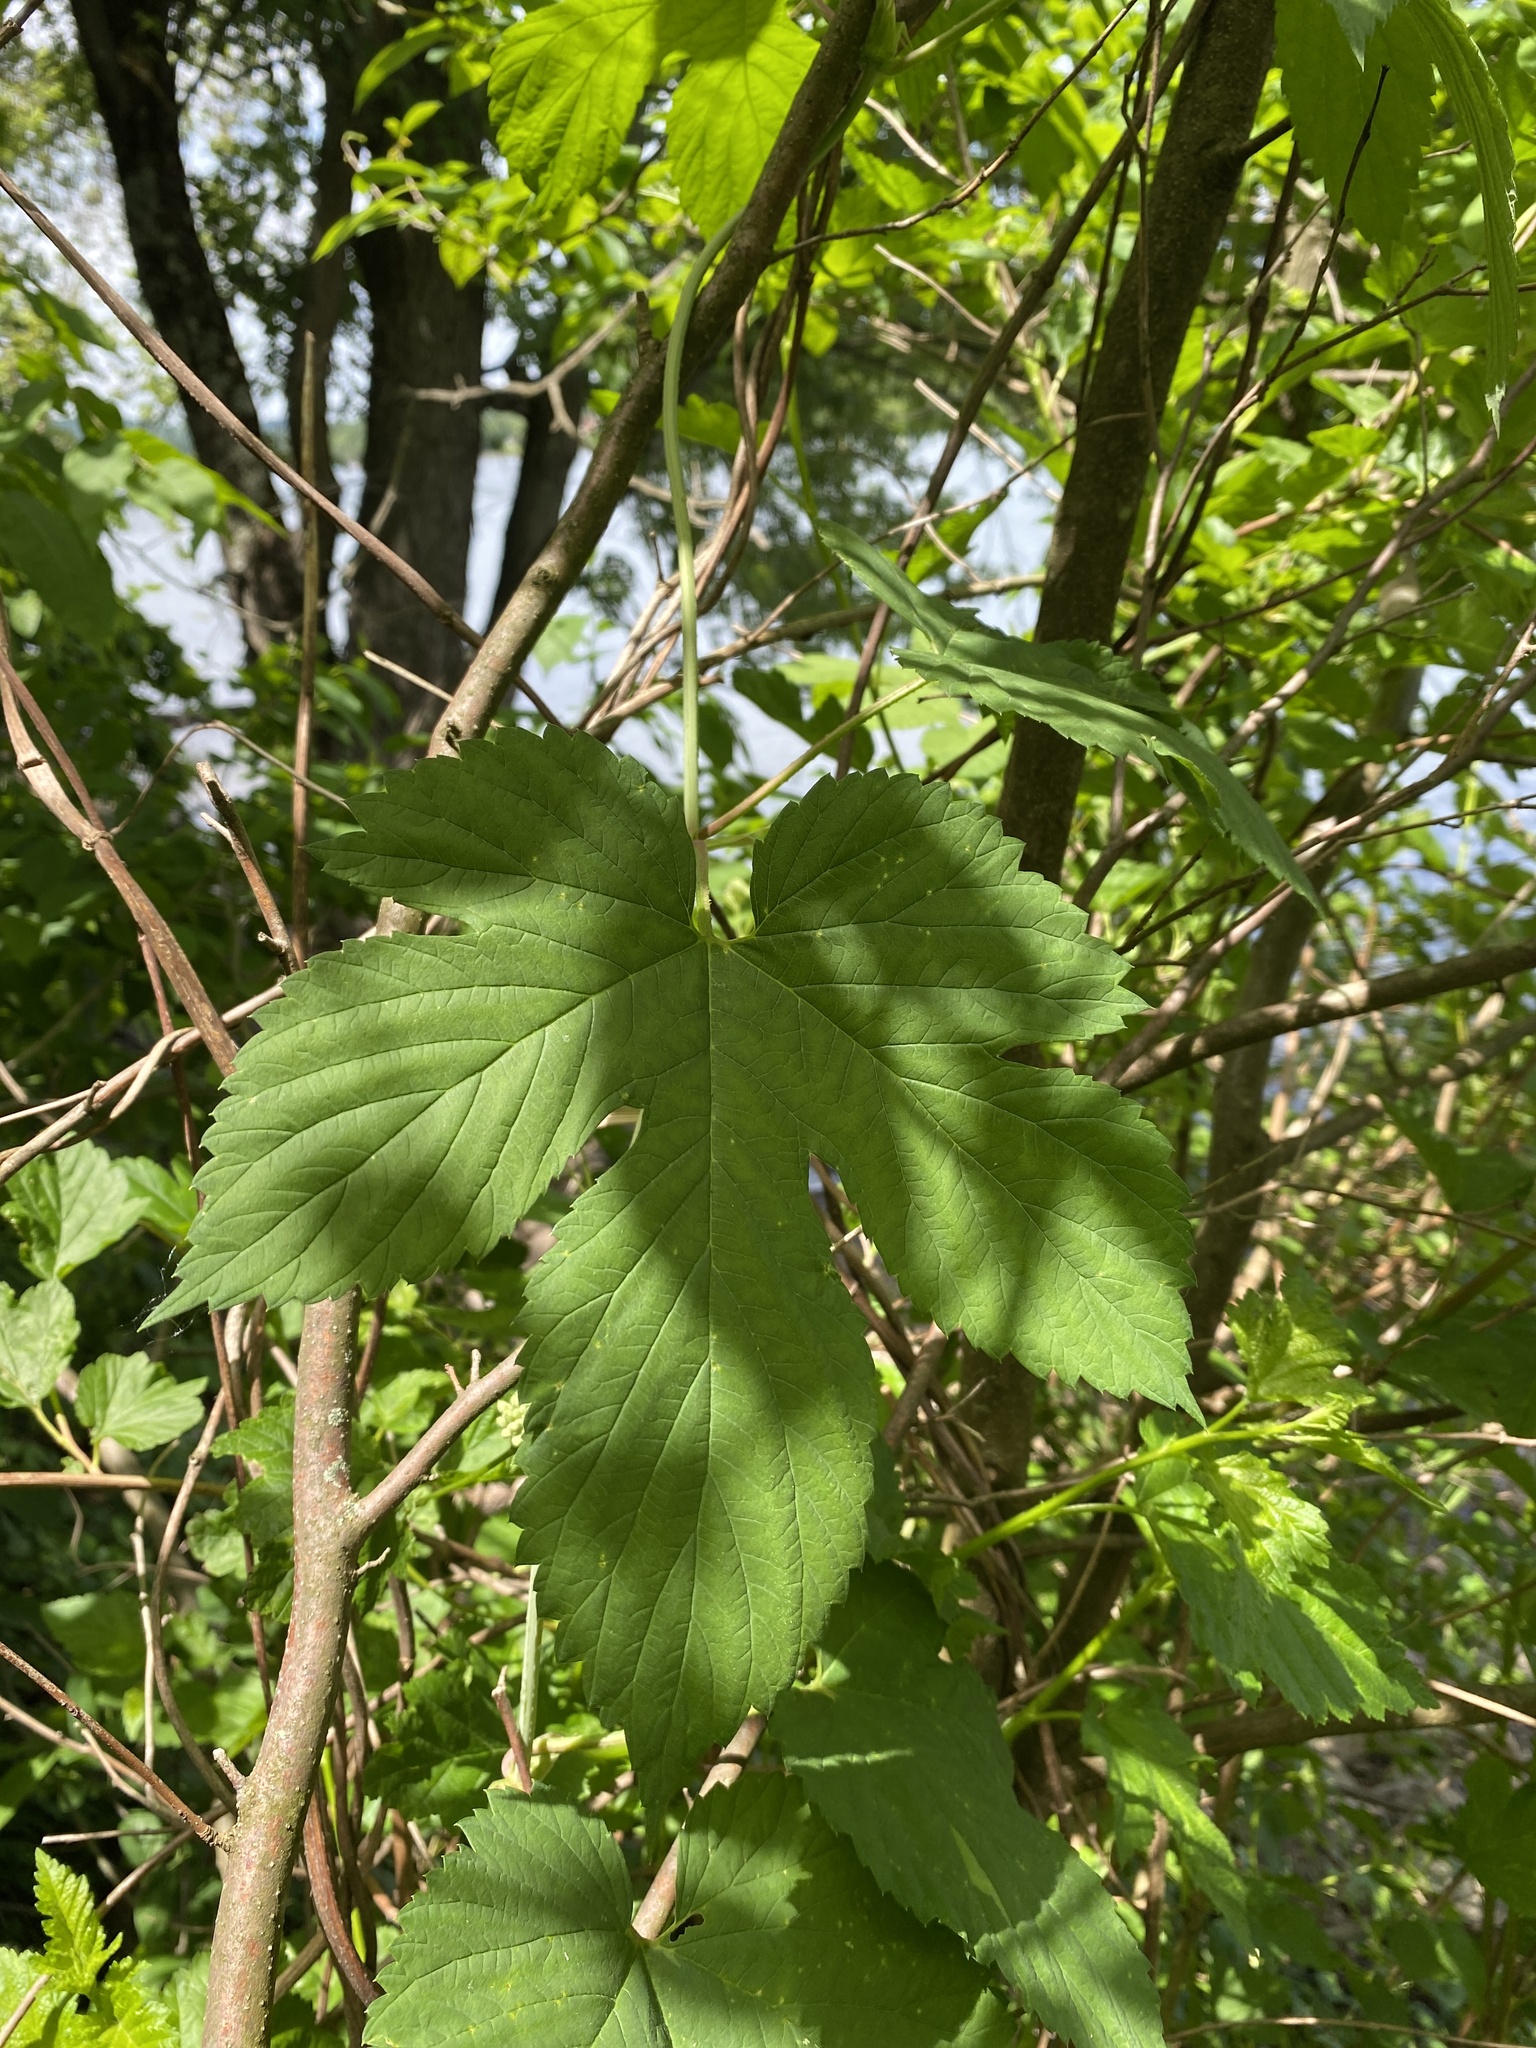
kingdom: Plantae
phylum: Tracheophyta
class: Magnoliopsida
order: Rosales
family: Cannabaceae
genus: Humulus
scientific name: Humulus lupulus
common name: Hop
